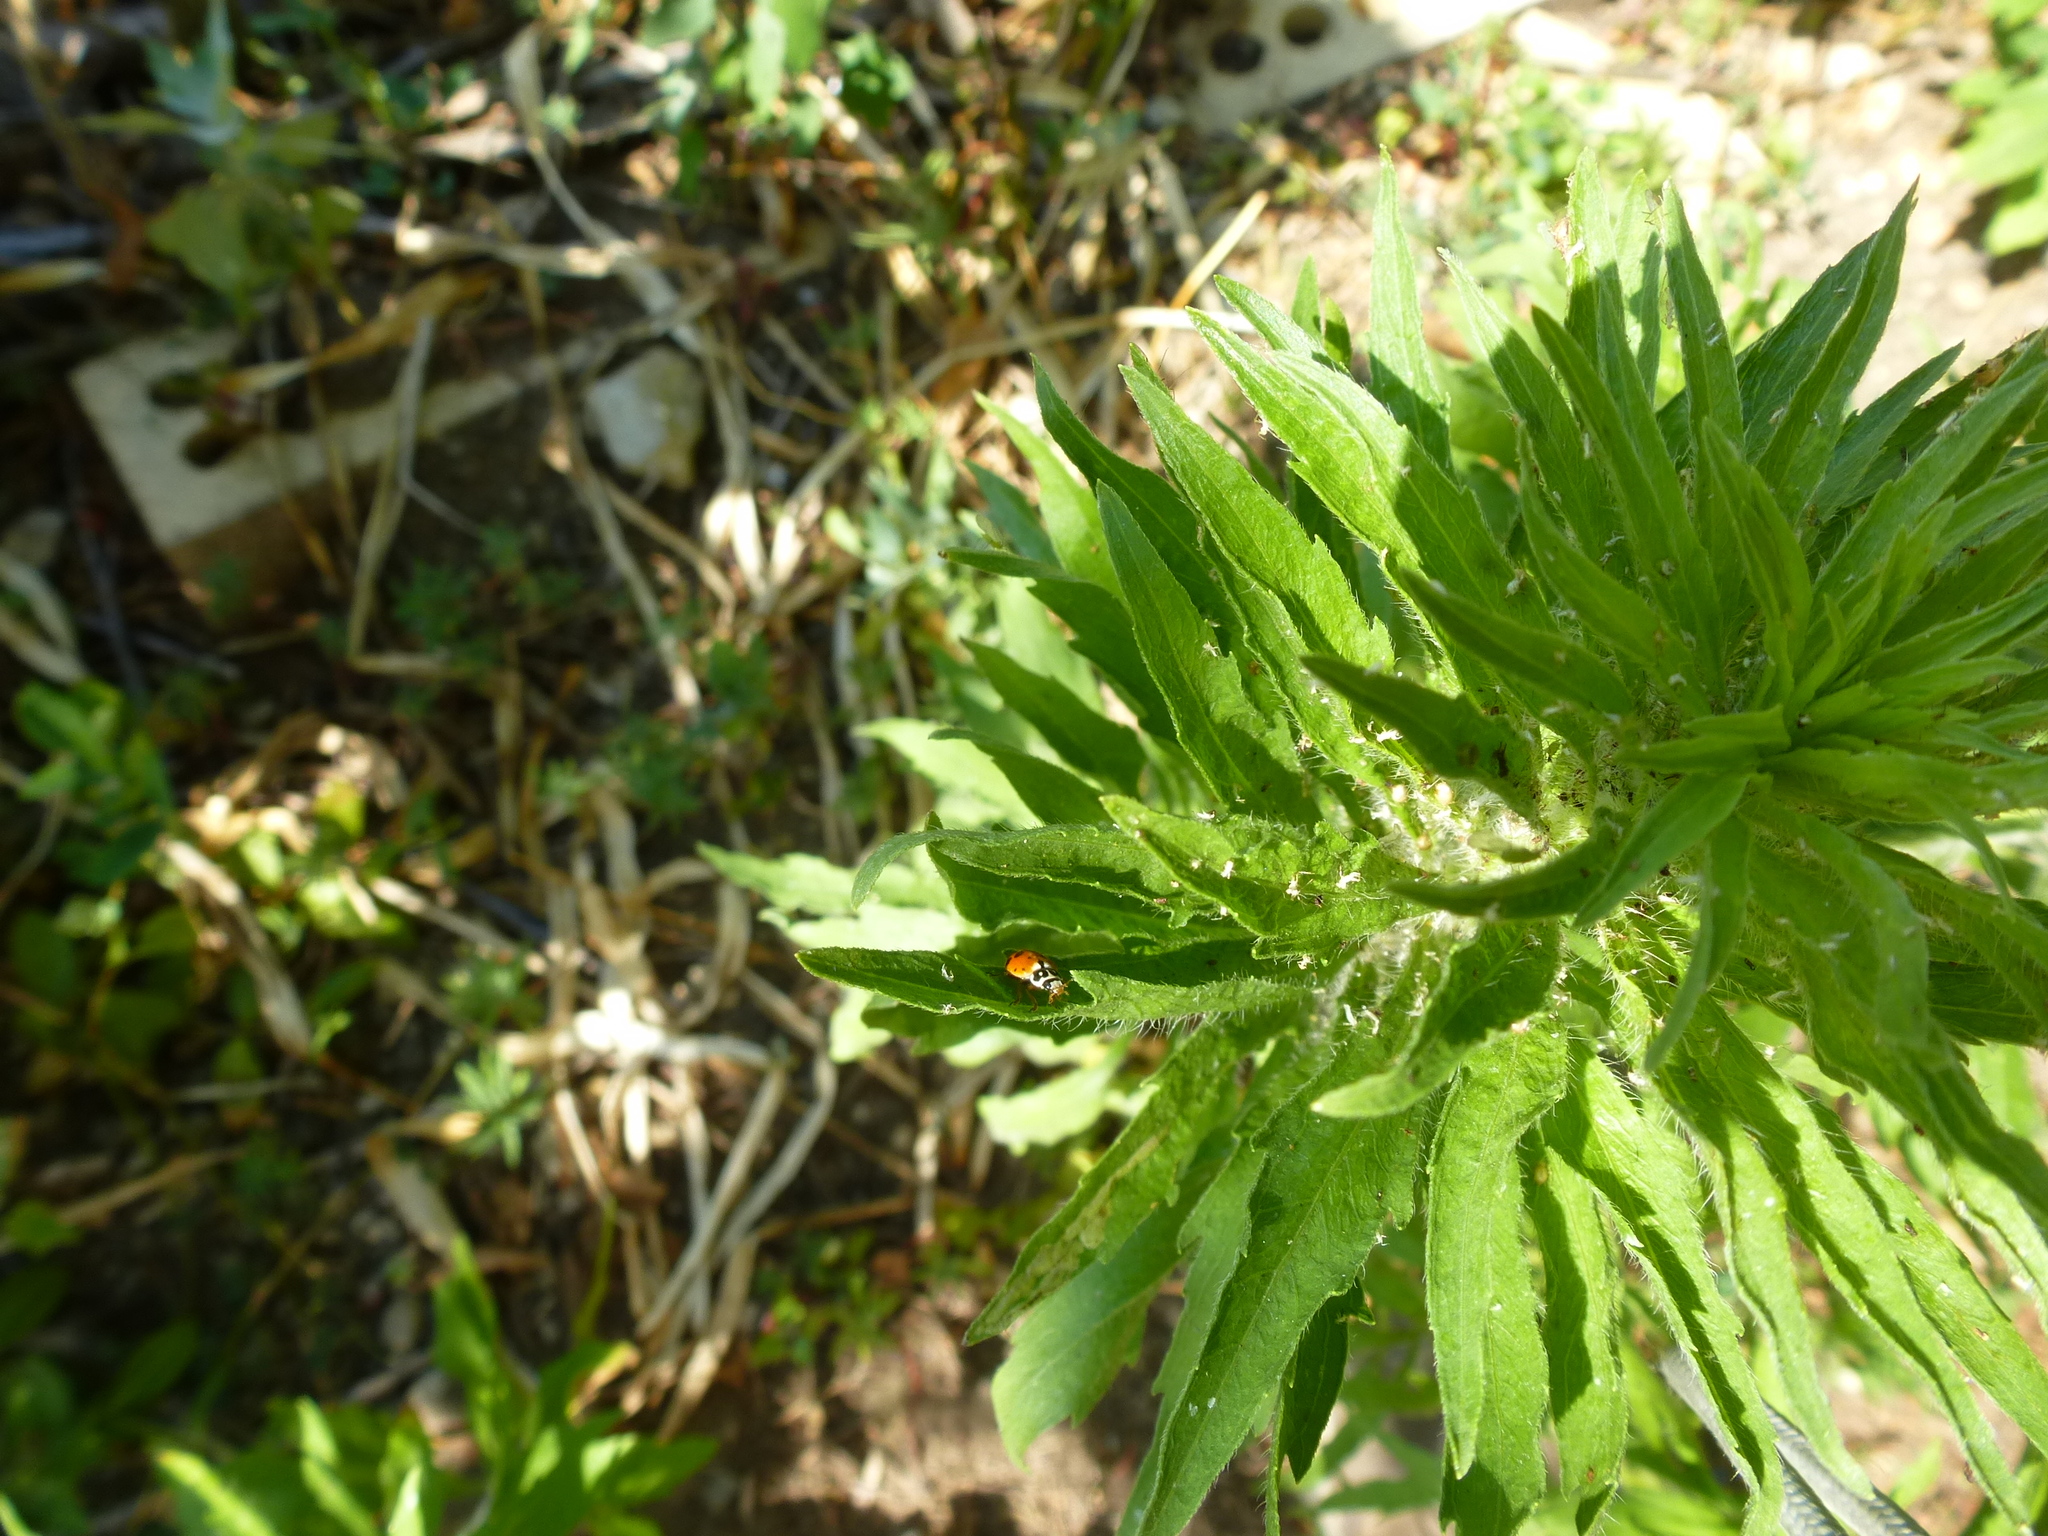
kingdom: Animalia
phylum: Arthropoda
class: Insecta
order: Coleoptera
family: Coccinellidae
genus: Hippodamia
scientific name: Hippodamia variegata
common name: Ladybird beetle
